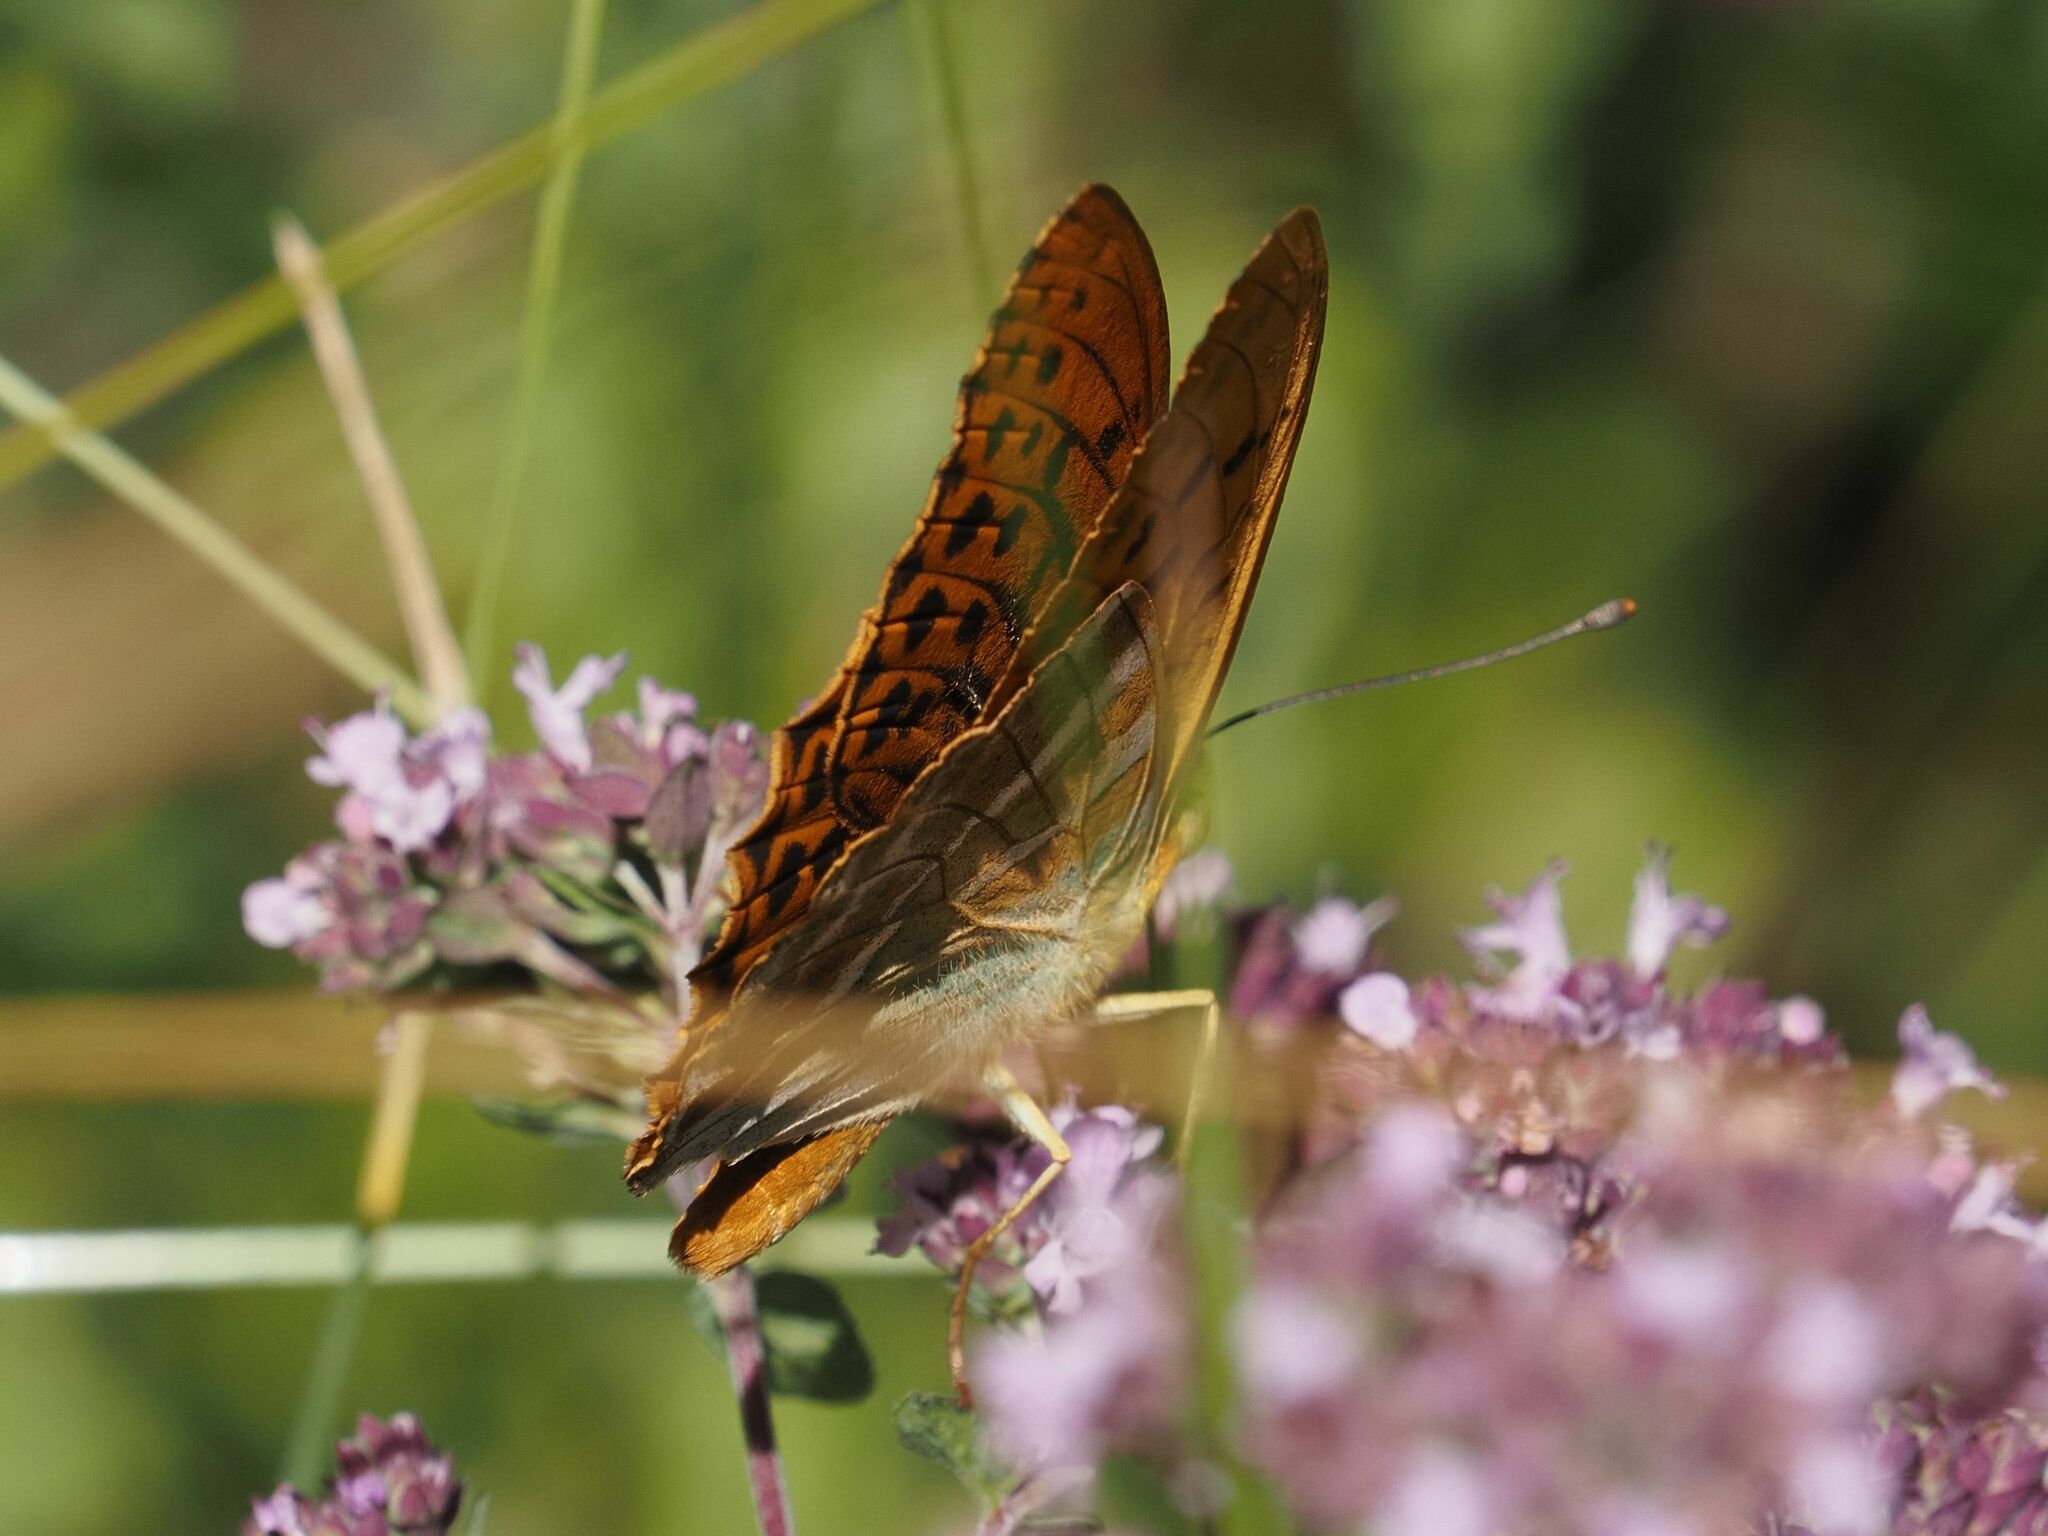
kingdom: Animalia
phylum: Arthropoda
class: Insecta
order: Lepidoptera
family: Nymphalidae
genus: Argynnis
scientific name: Argynnis paphia
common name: Silver-washed fritillary
